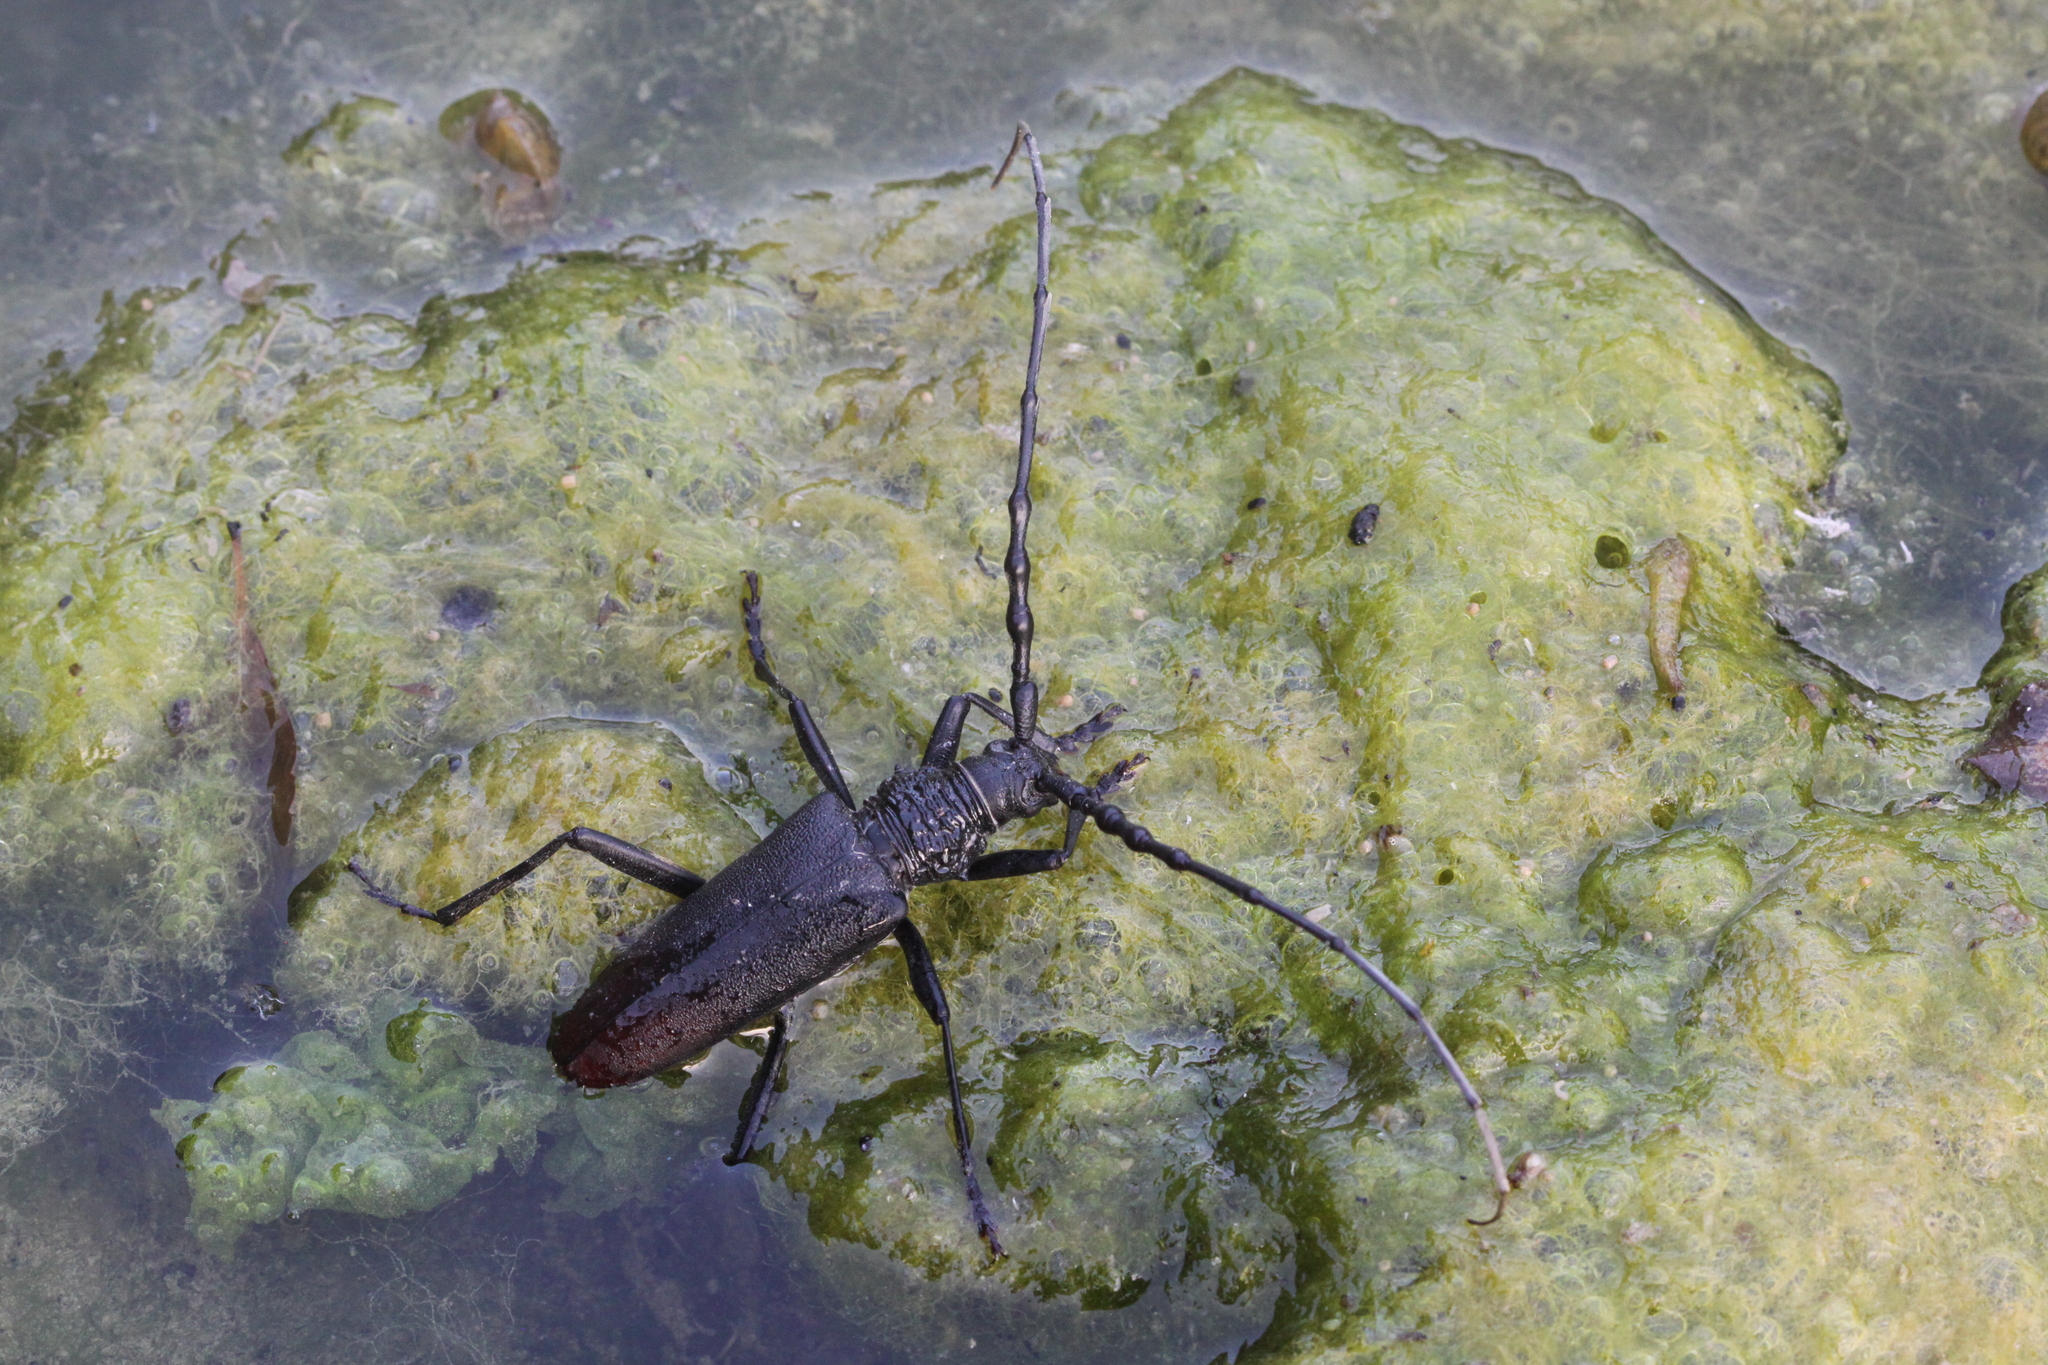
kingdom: Animalia
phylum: Arthropoda
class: Insecta
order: Coleoptera
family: Cerambycidae
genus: Cerambyx
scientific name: Cerambyx cerdo
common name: Cerambyx longicorn
